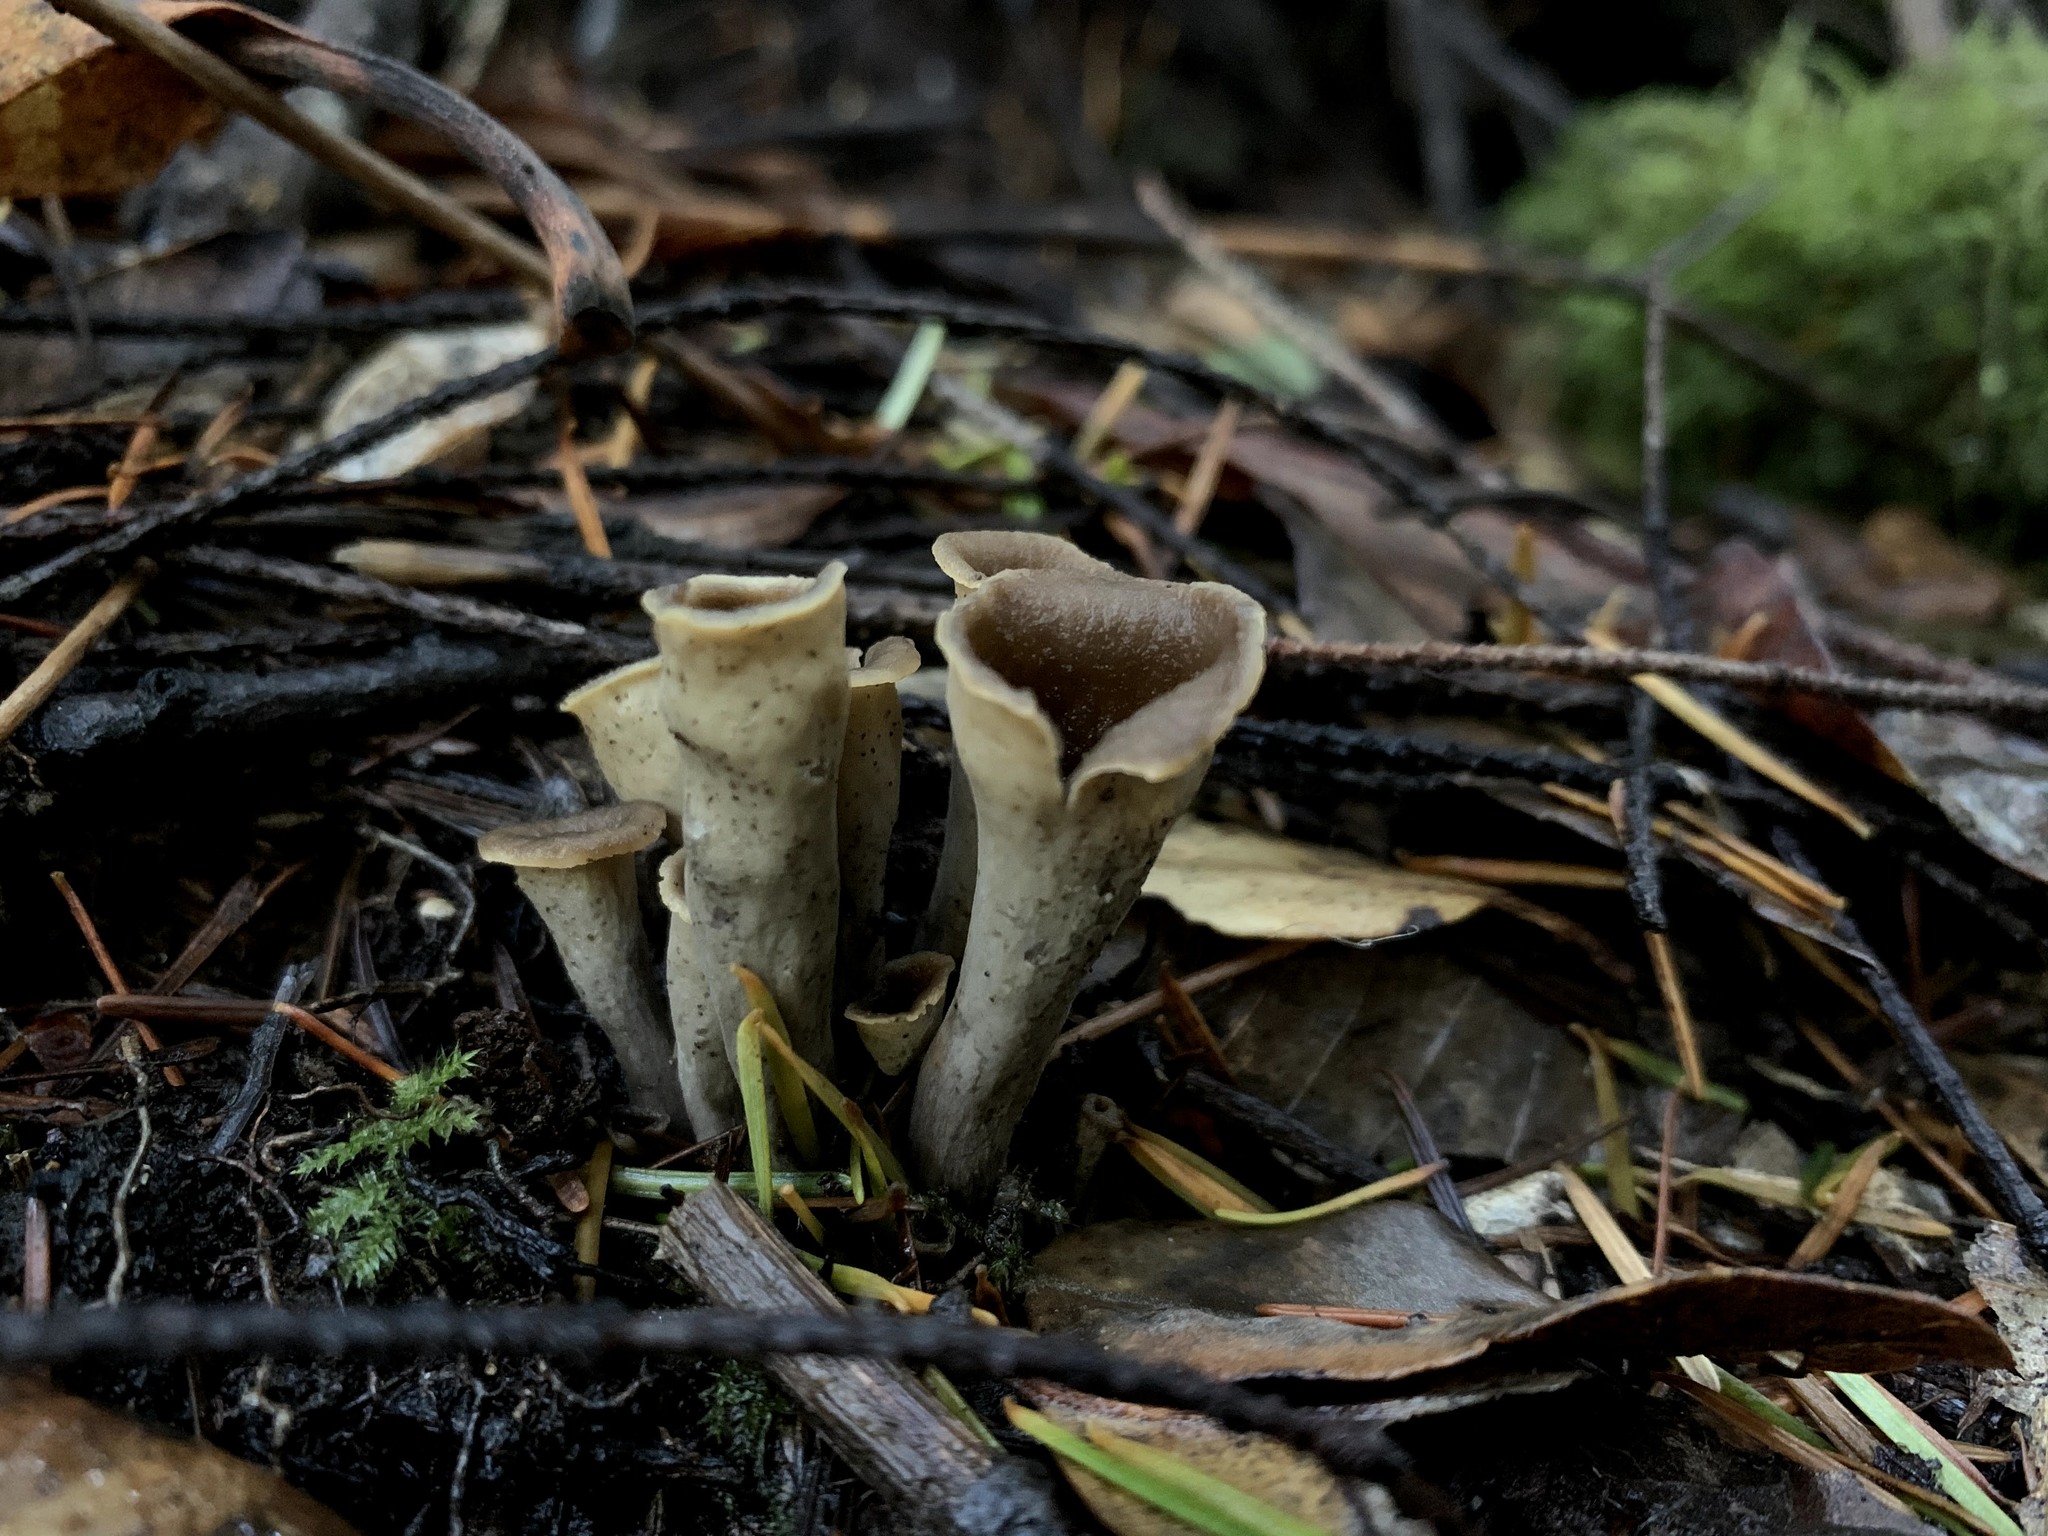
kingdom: Fungi
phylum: Basidiomycota
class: Agaricomycetes
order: Cantharellales
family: Hydnaceae
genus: Craterellus
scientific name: Craterellus calicornucopioides
